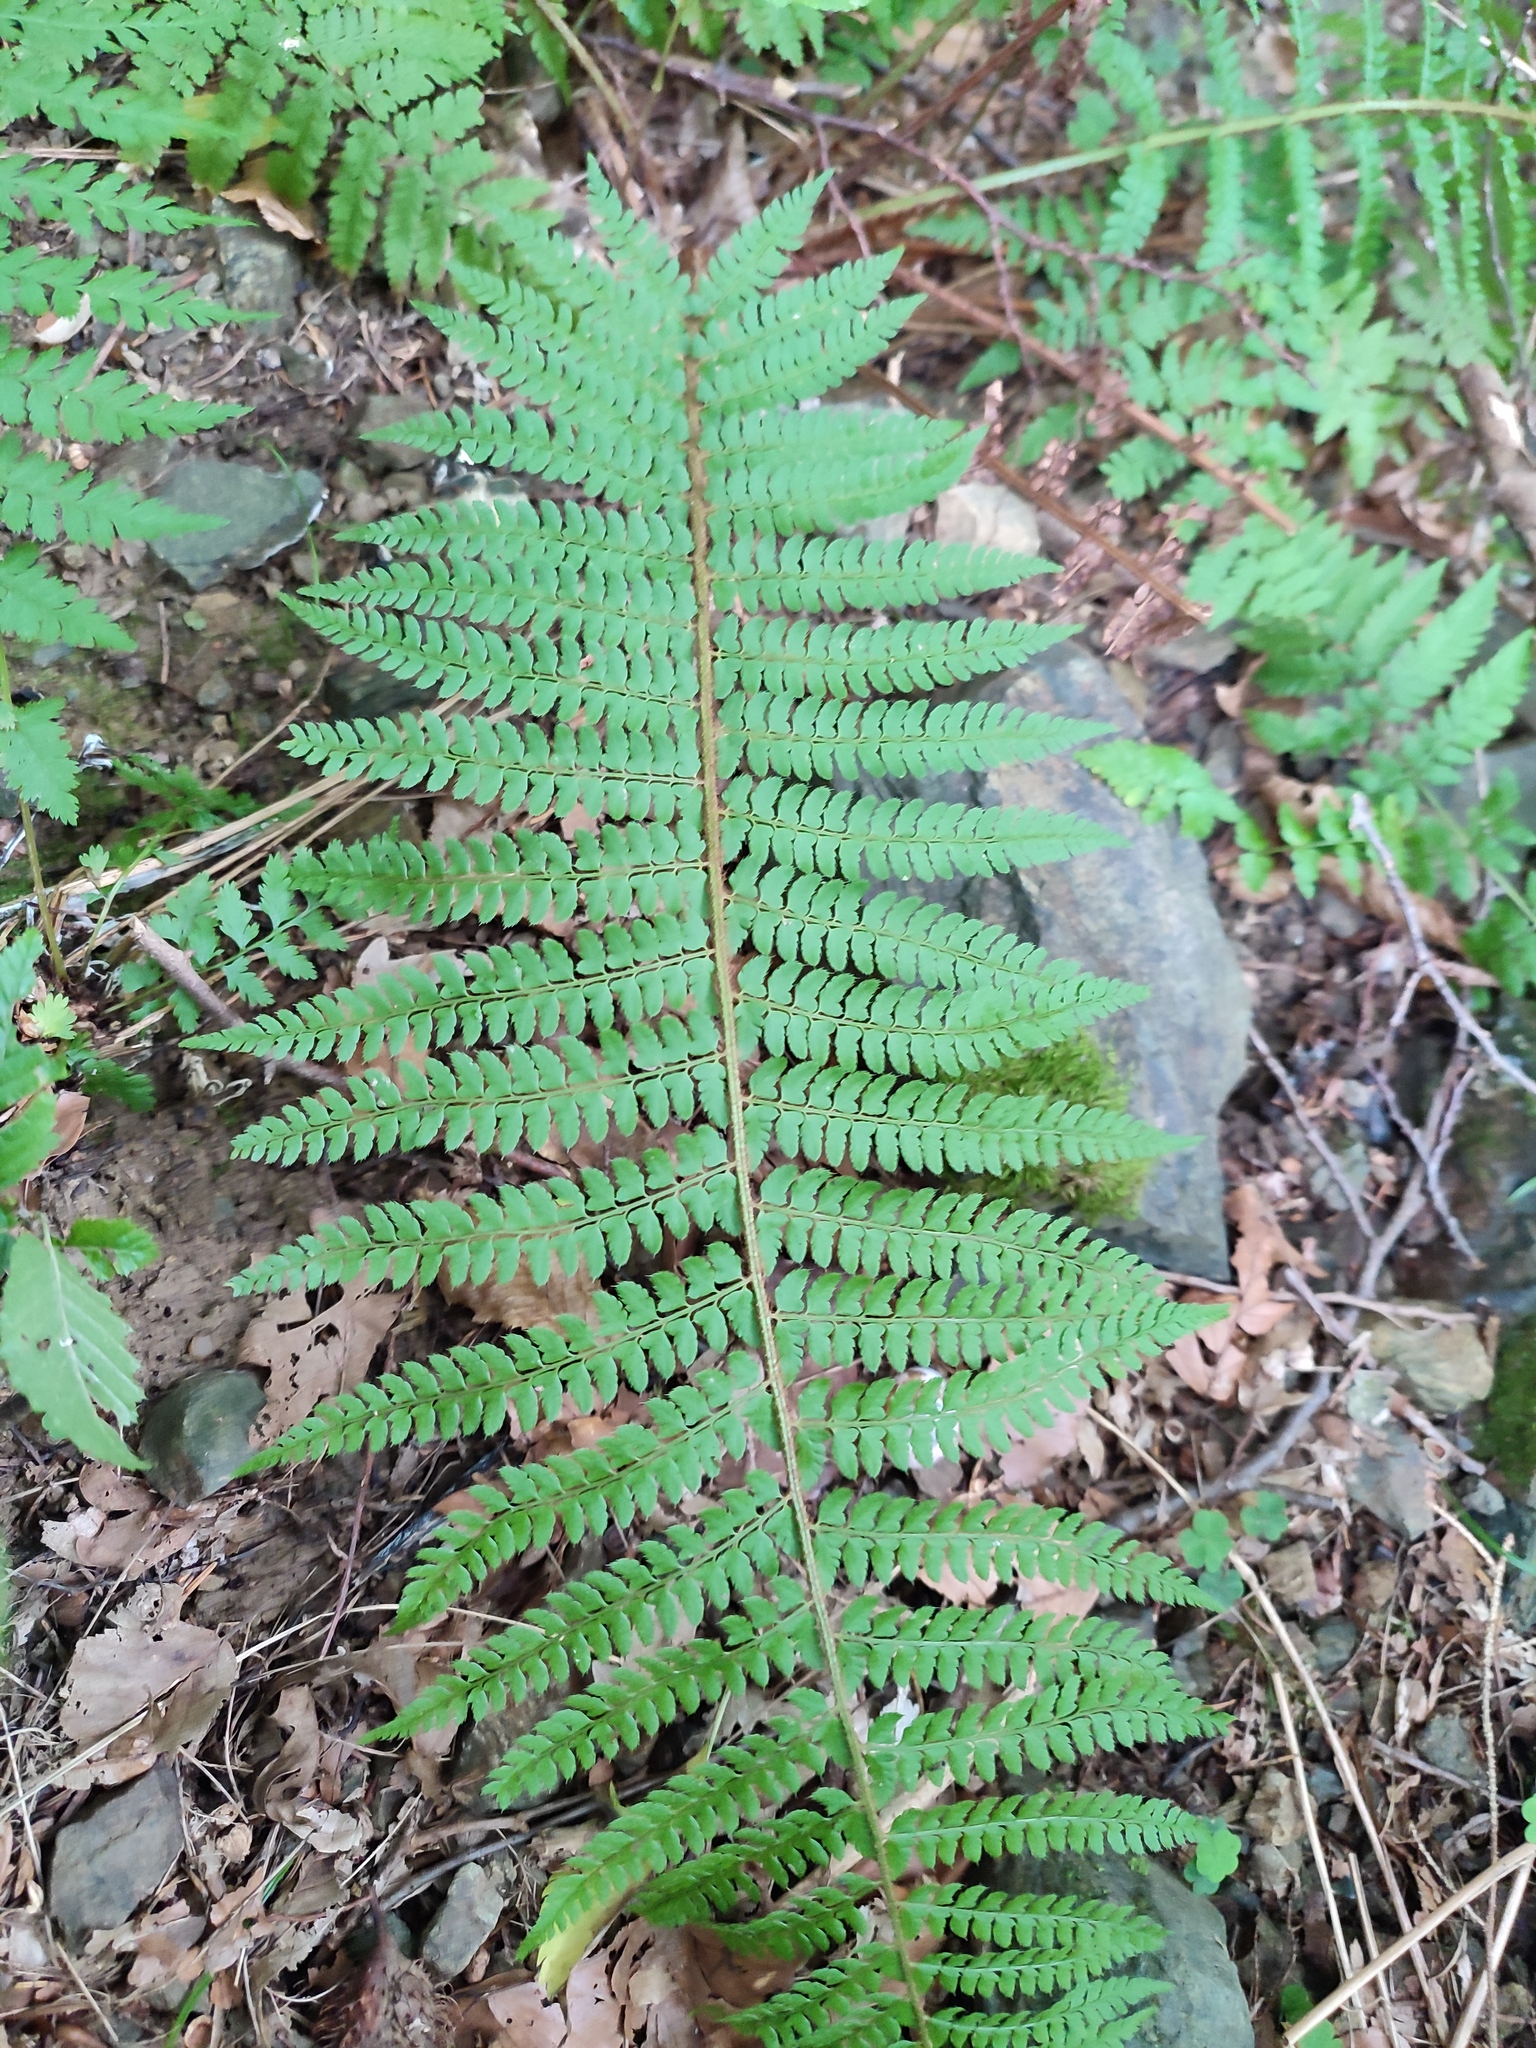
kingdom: Plantae
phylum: Tracheophyta
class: Polypodiopsida
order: Polypodiales
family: Dryopteridaceae
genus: Polystichum
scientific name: Polystichum setiferum
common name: Soft shield-fern
